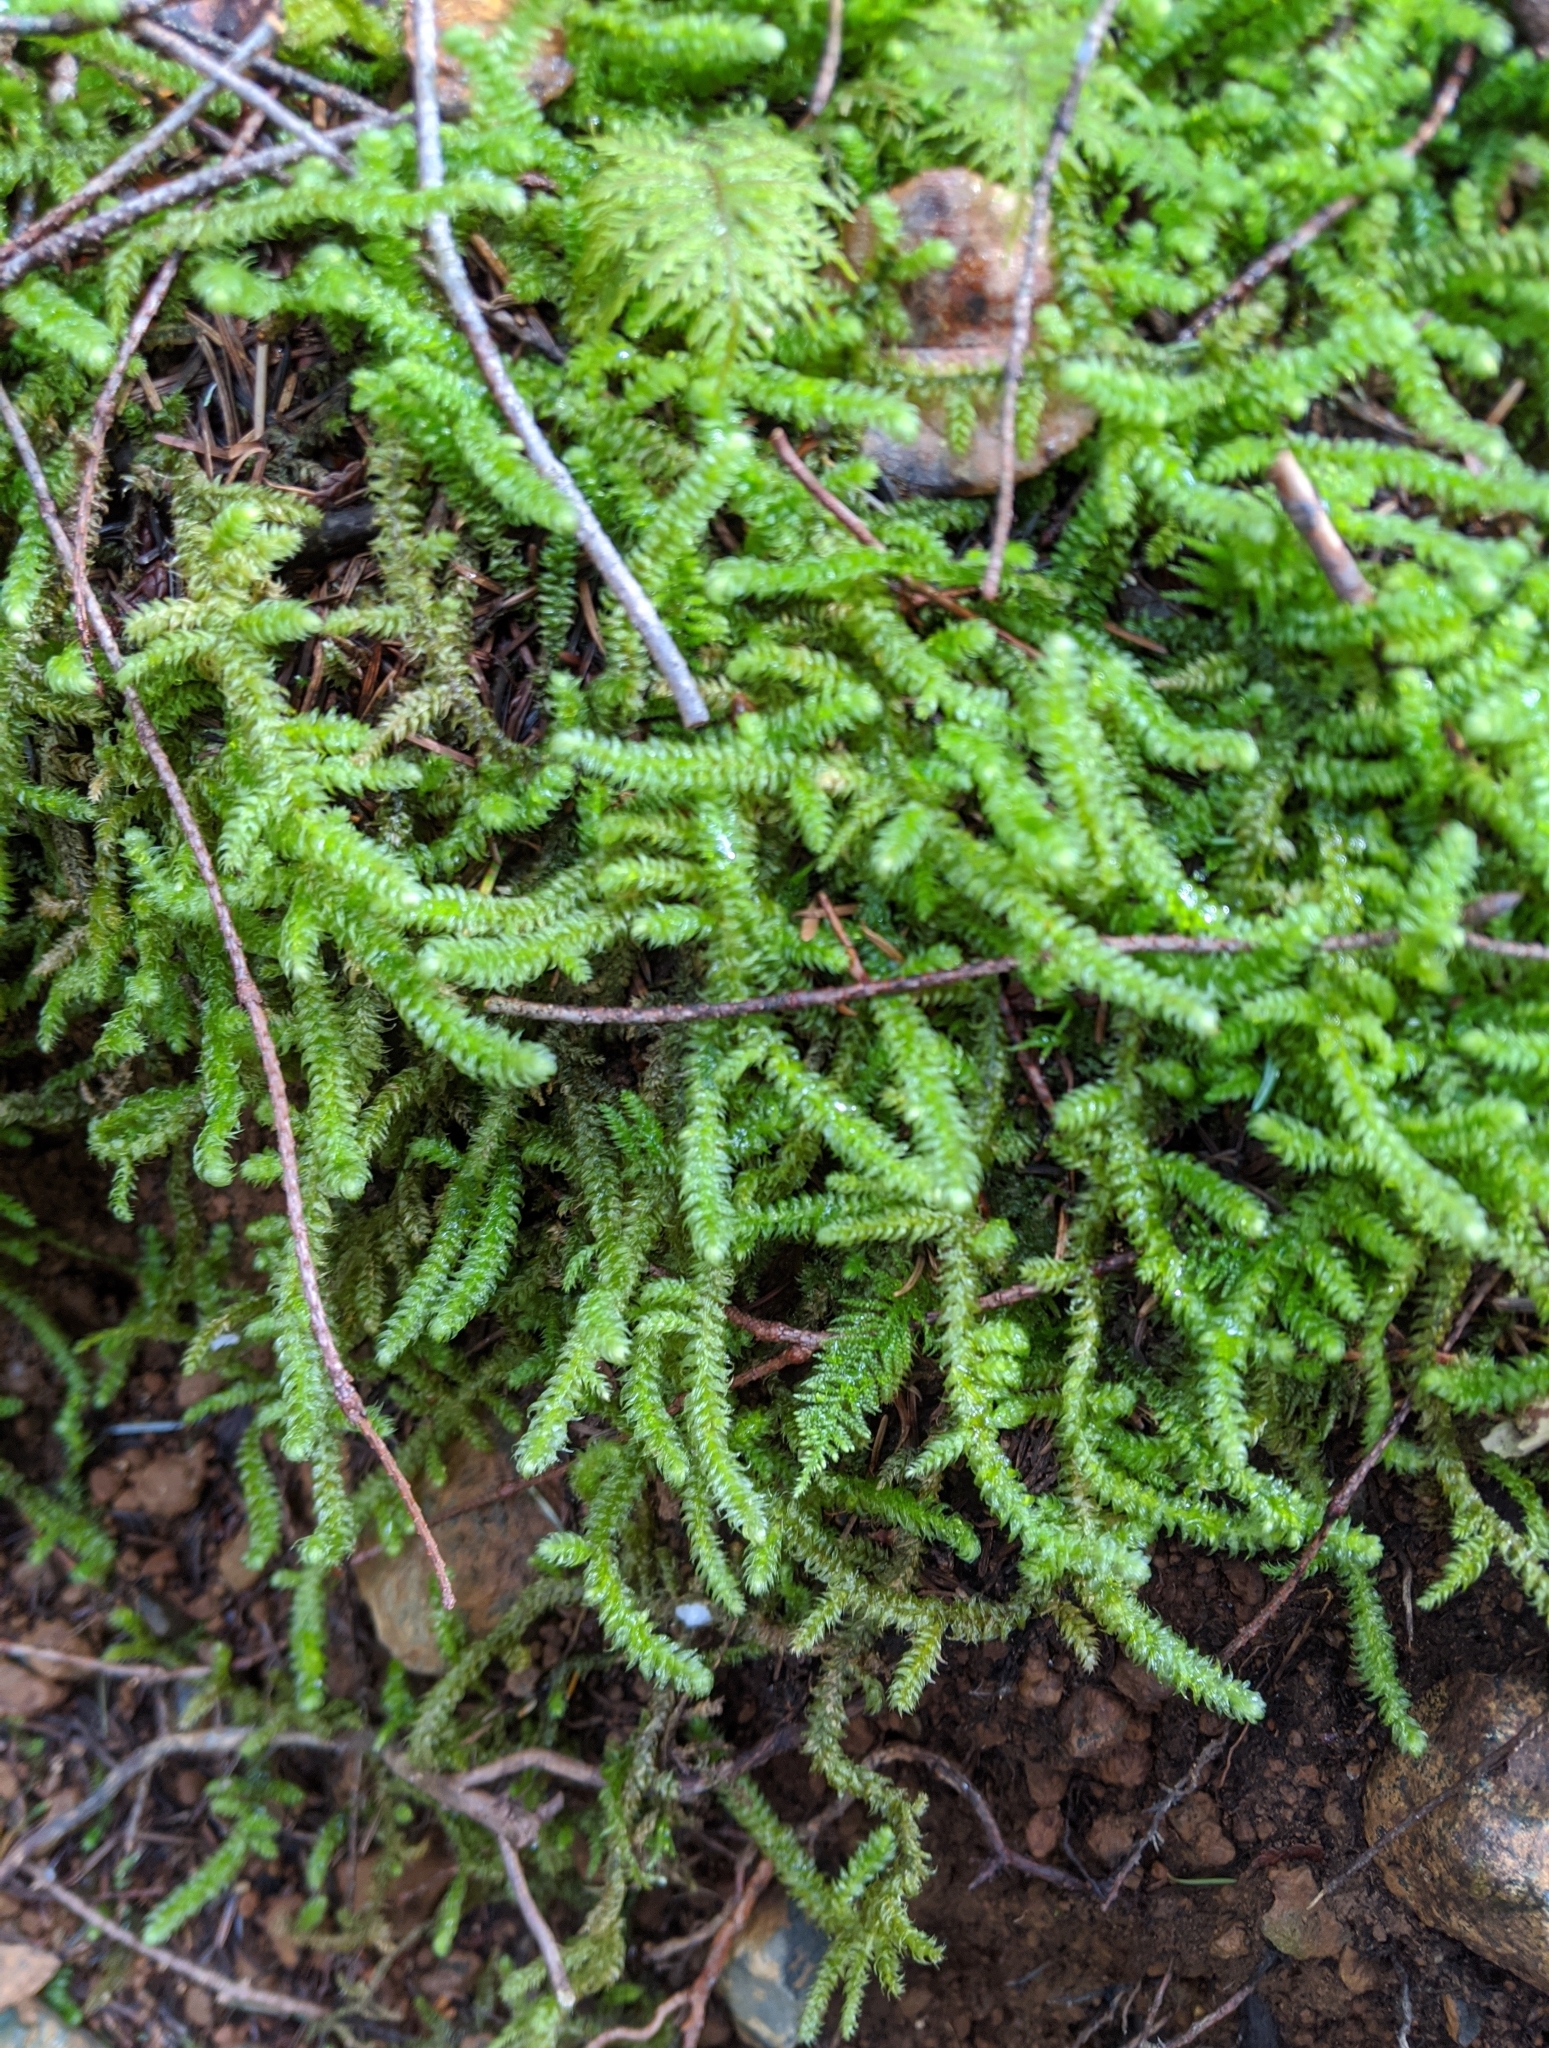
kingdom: Plantae
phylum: Bryophyta
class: Bryopsida
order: Hypnales
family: Hylocomiaceae
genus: Rhytidiopsis
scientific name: Rhytidiopsis robusta
